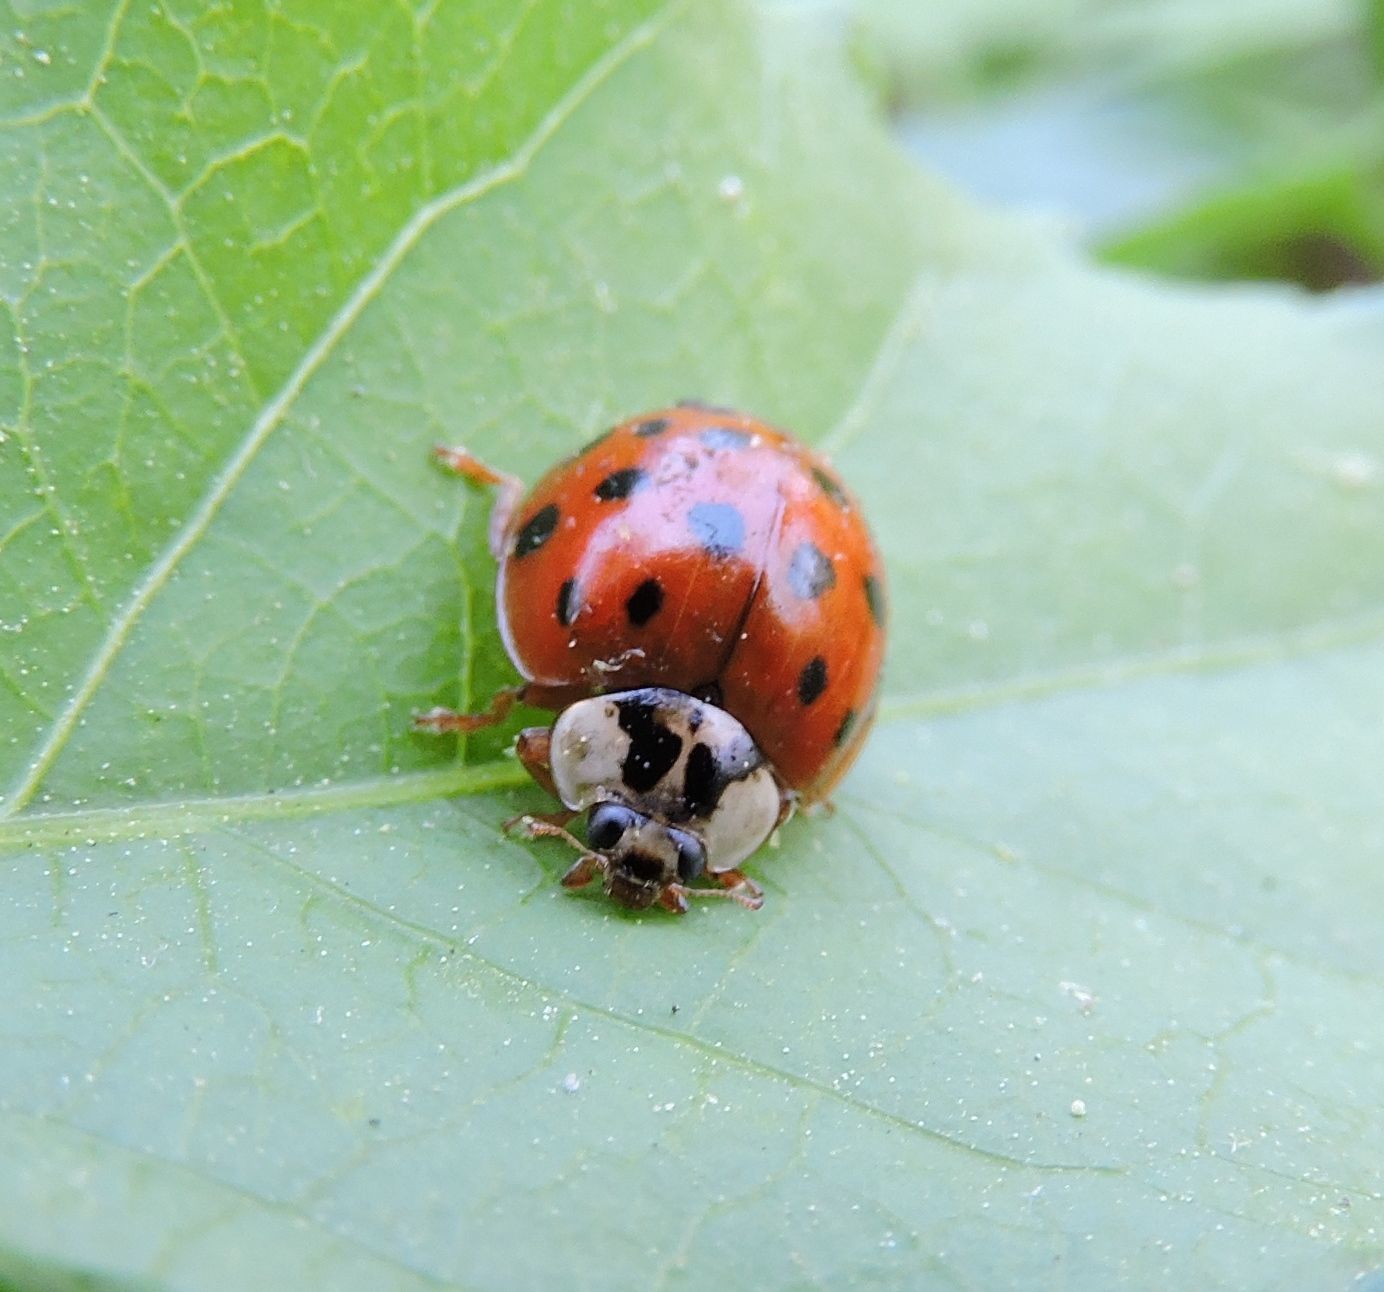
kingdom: Animalia
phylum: Arthropoda
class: Insecta
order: Coleoptera
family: Coccinellidae
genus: Harmonia
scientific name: Harmonia axyridis
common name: Harlequin ladybird
